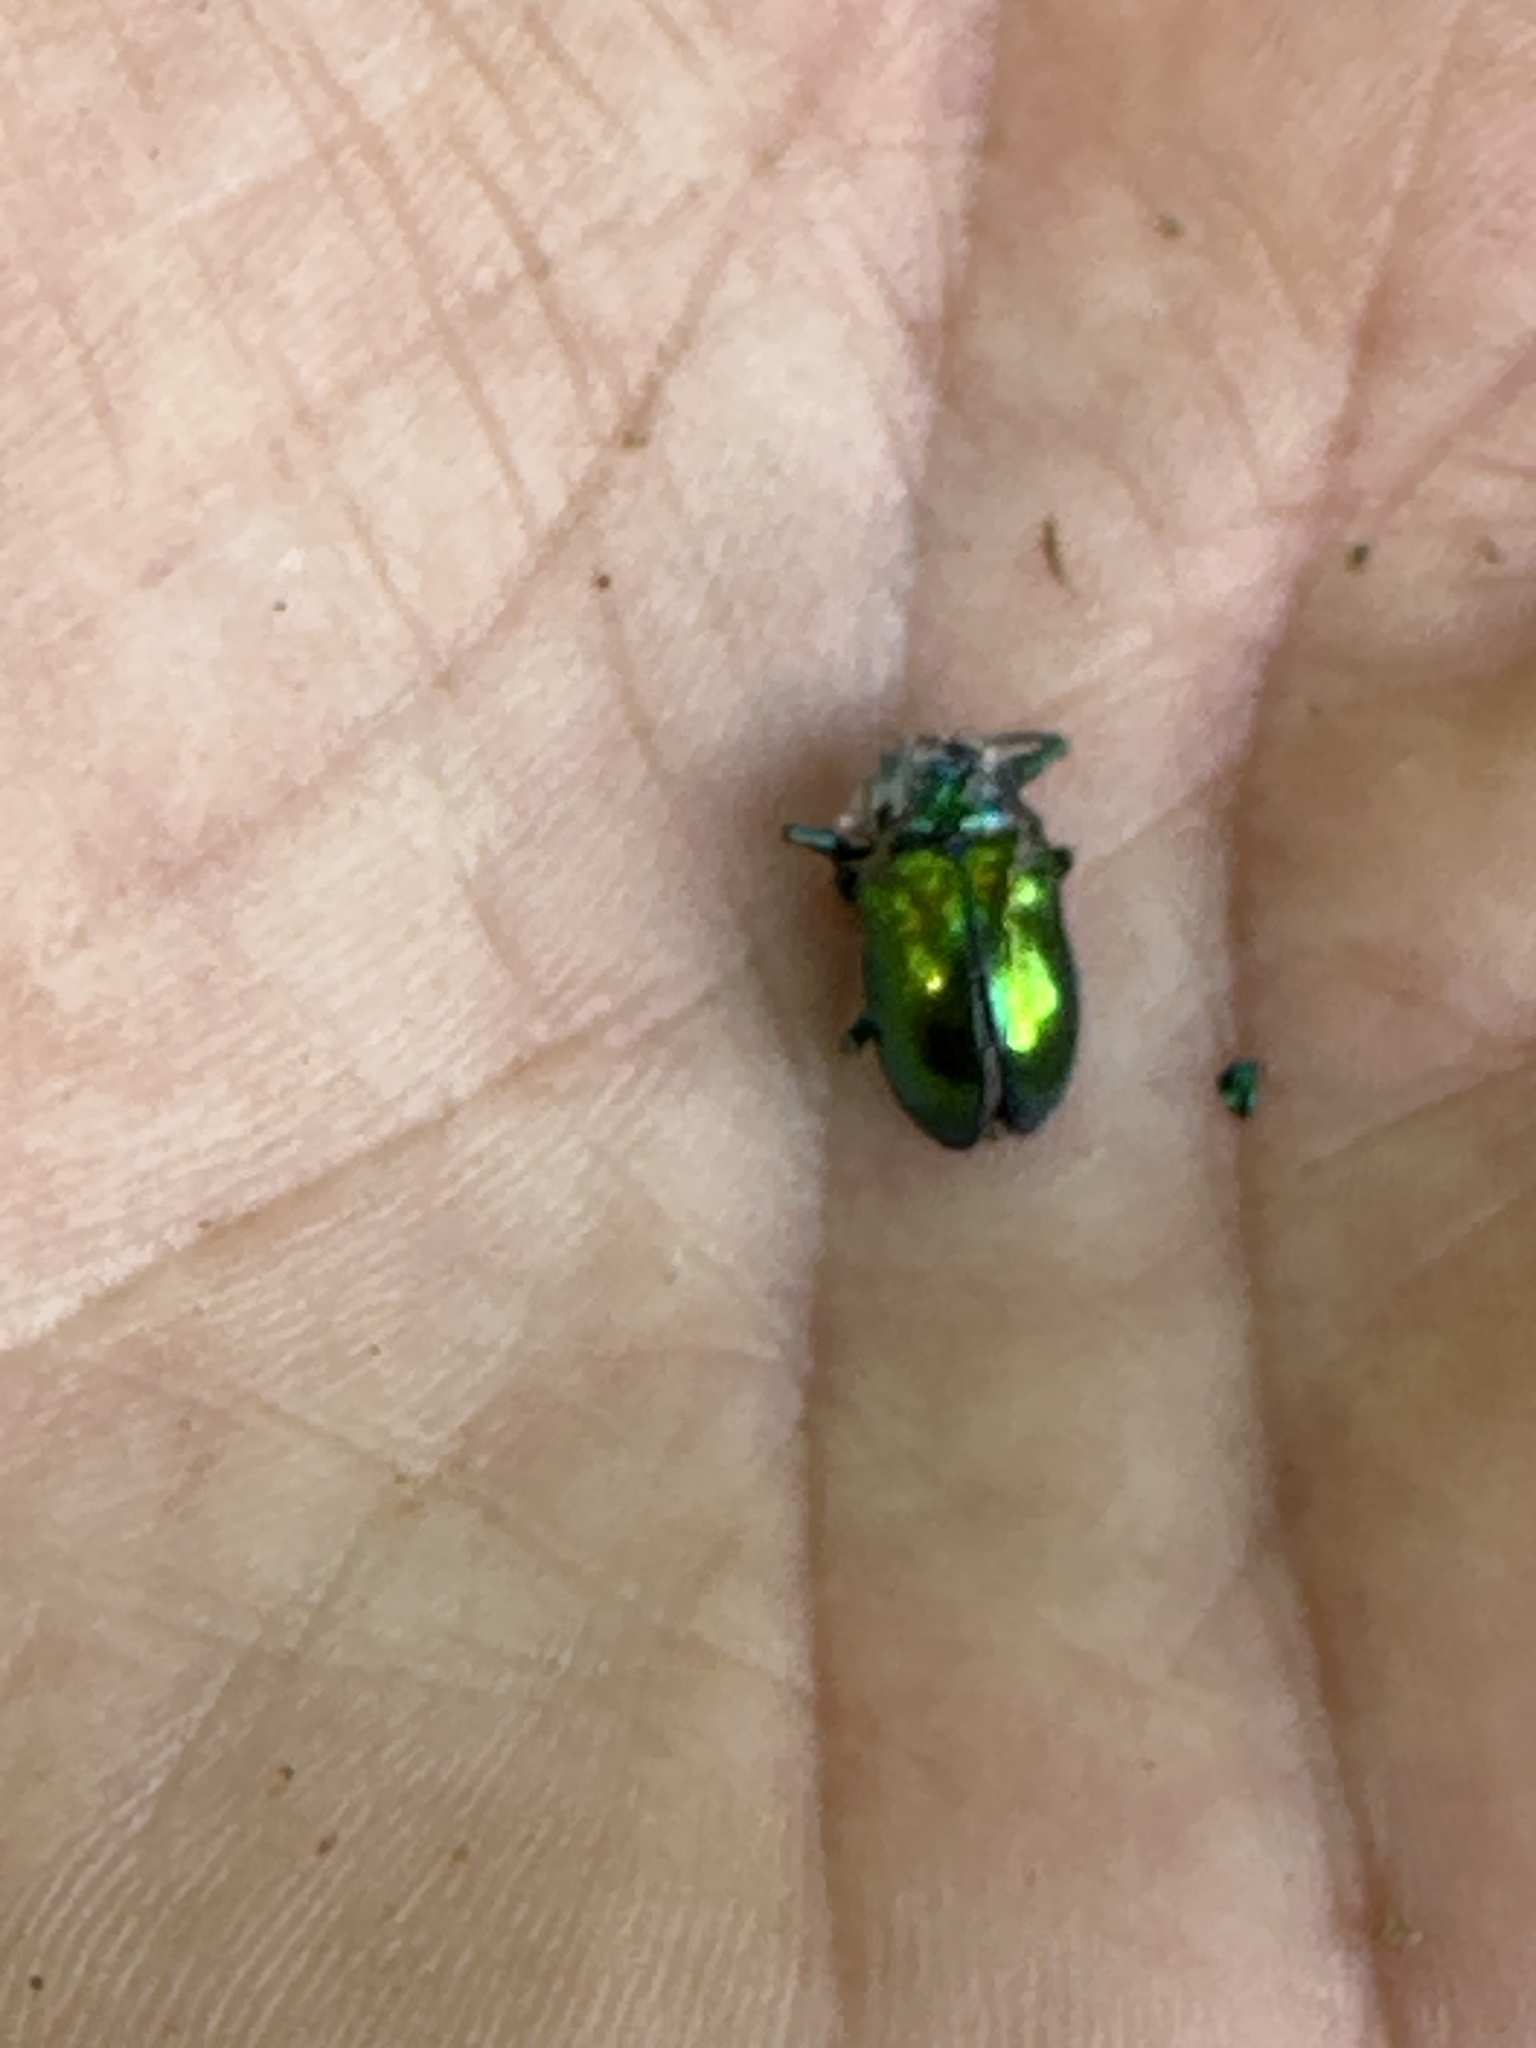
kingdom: Animalia
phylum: Arthropoda
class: Insecta
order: Coleoptera
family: Chrysomelidae
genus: Chrysochus
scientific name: Chrysochus auratus
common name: Dogbane leaf beetle
